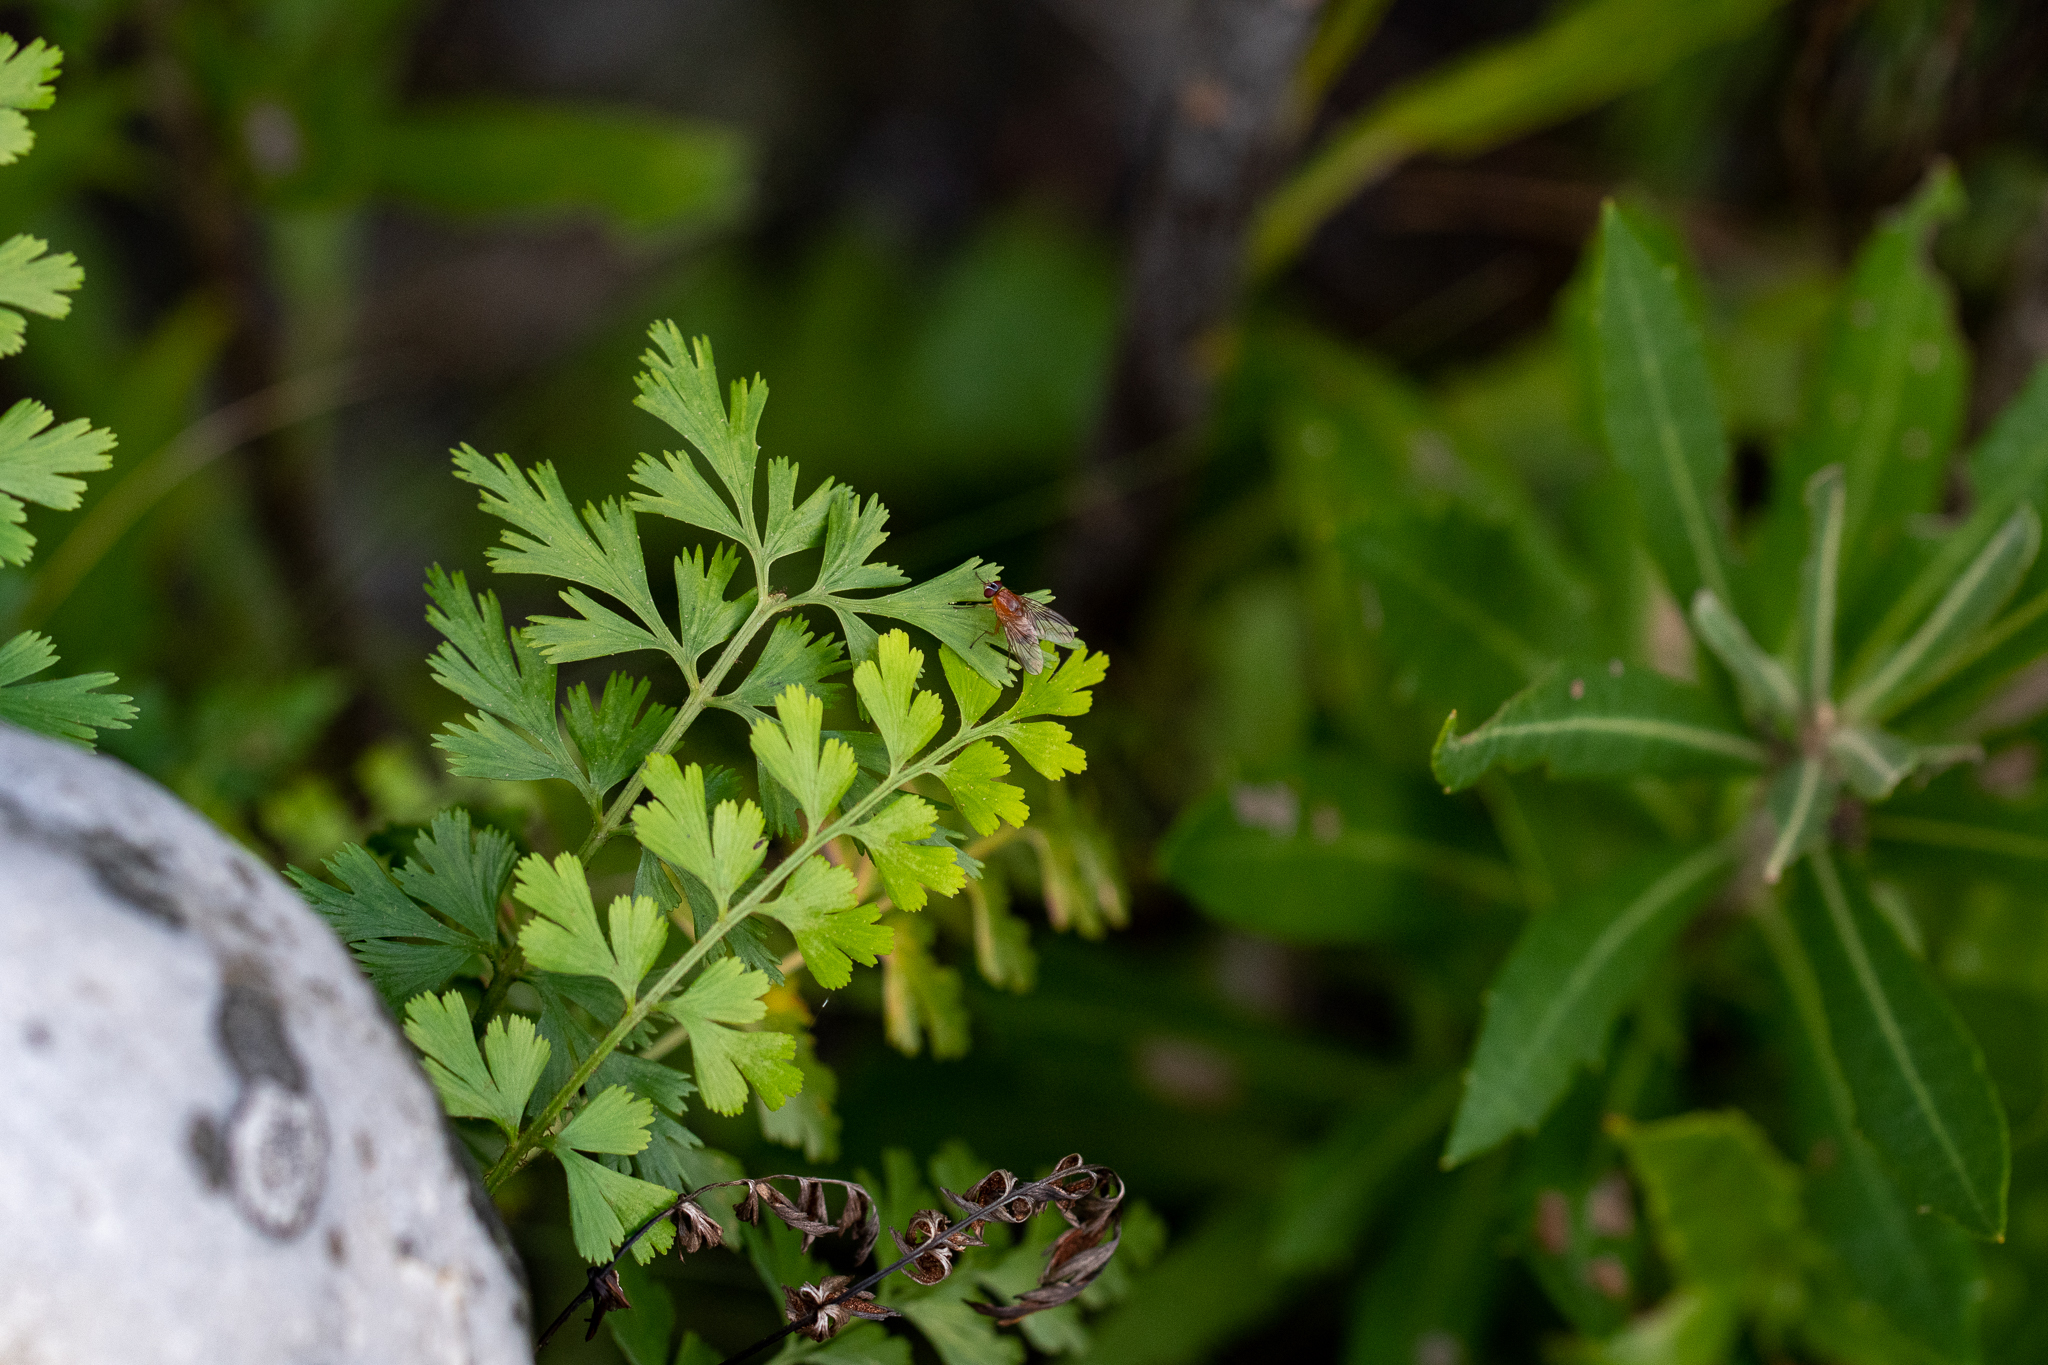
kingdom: Plantae
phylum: Tracheophyta
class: Polypodiopsida
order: Polypodiales
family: Aspleniaceae
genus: Asplenium
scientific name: Asplenium aethiopicum
